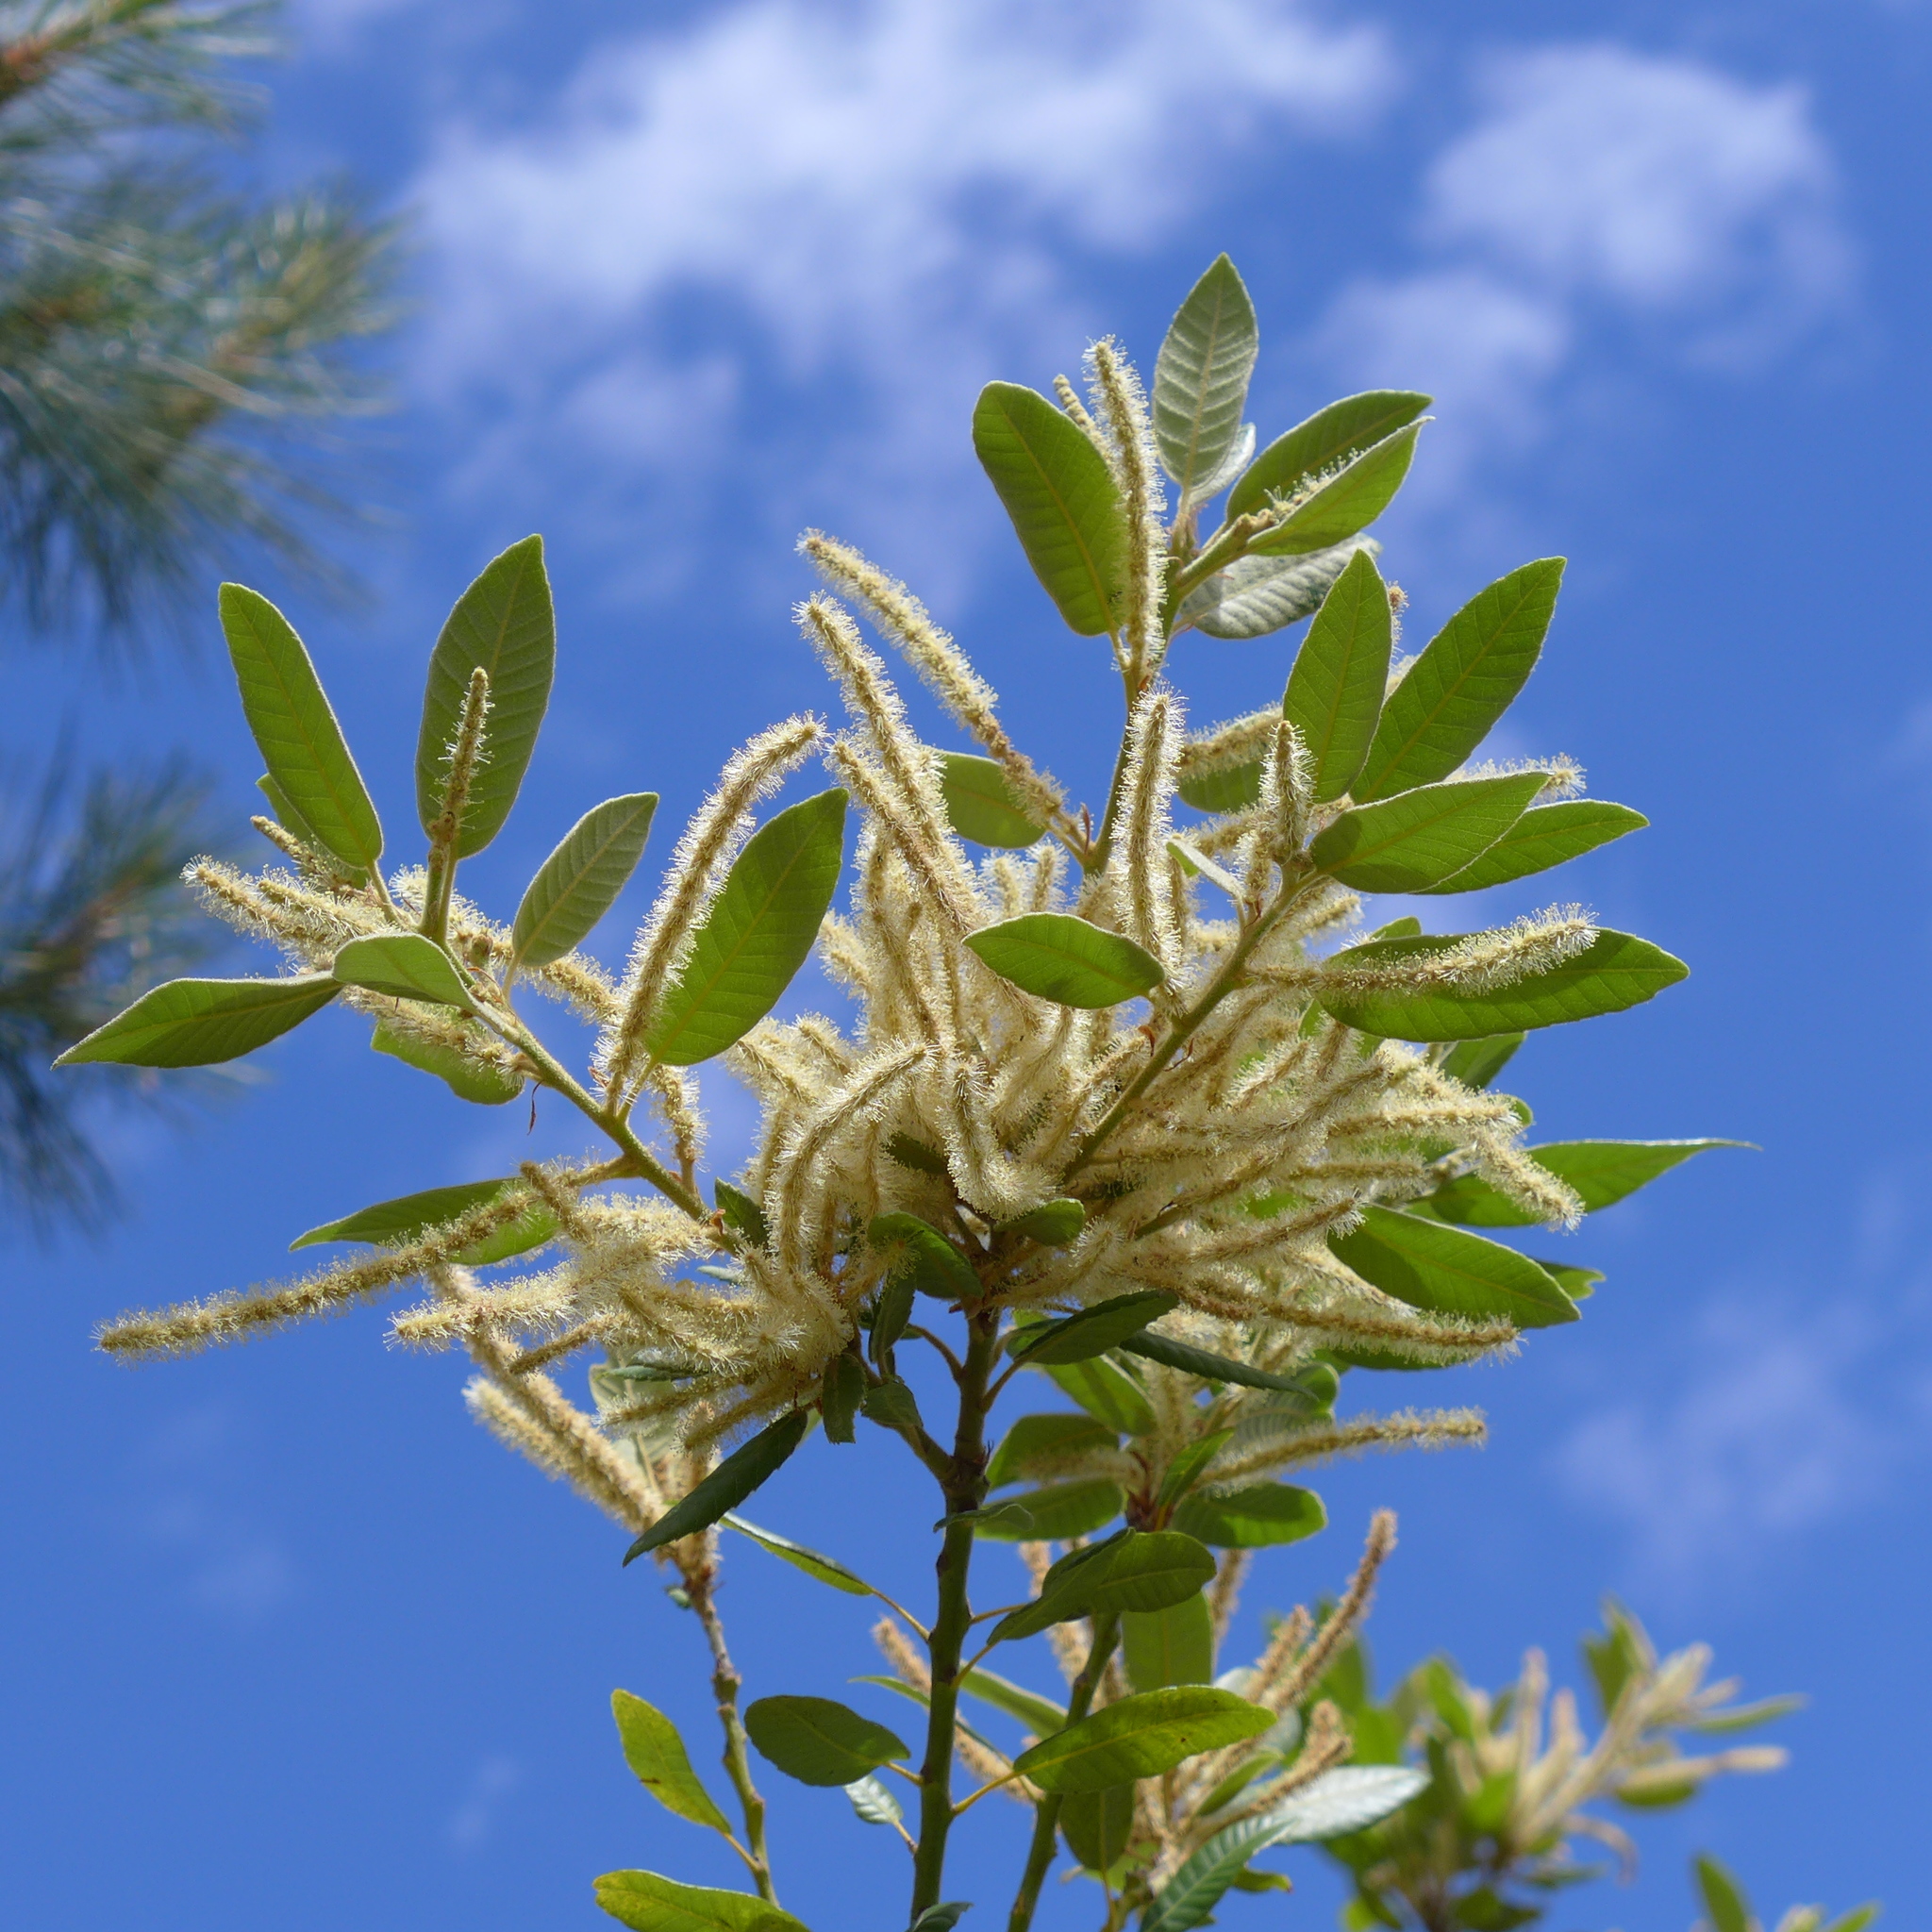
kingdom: Plantae
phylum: Tracheophyta
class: Magnoliopsida
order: Fagales
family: Fagaceae
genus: Notholithocarpus
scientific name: Notholithocarpus densiflorus
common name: Tan bark oak
